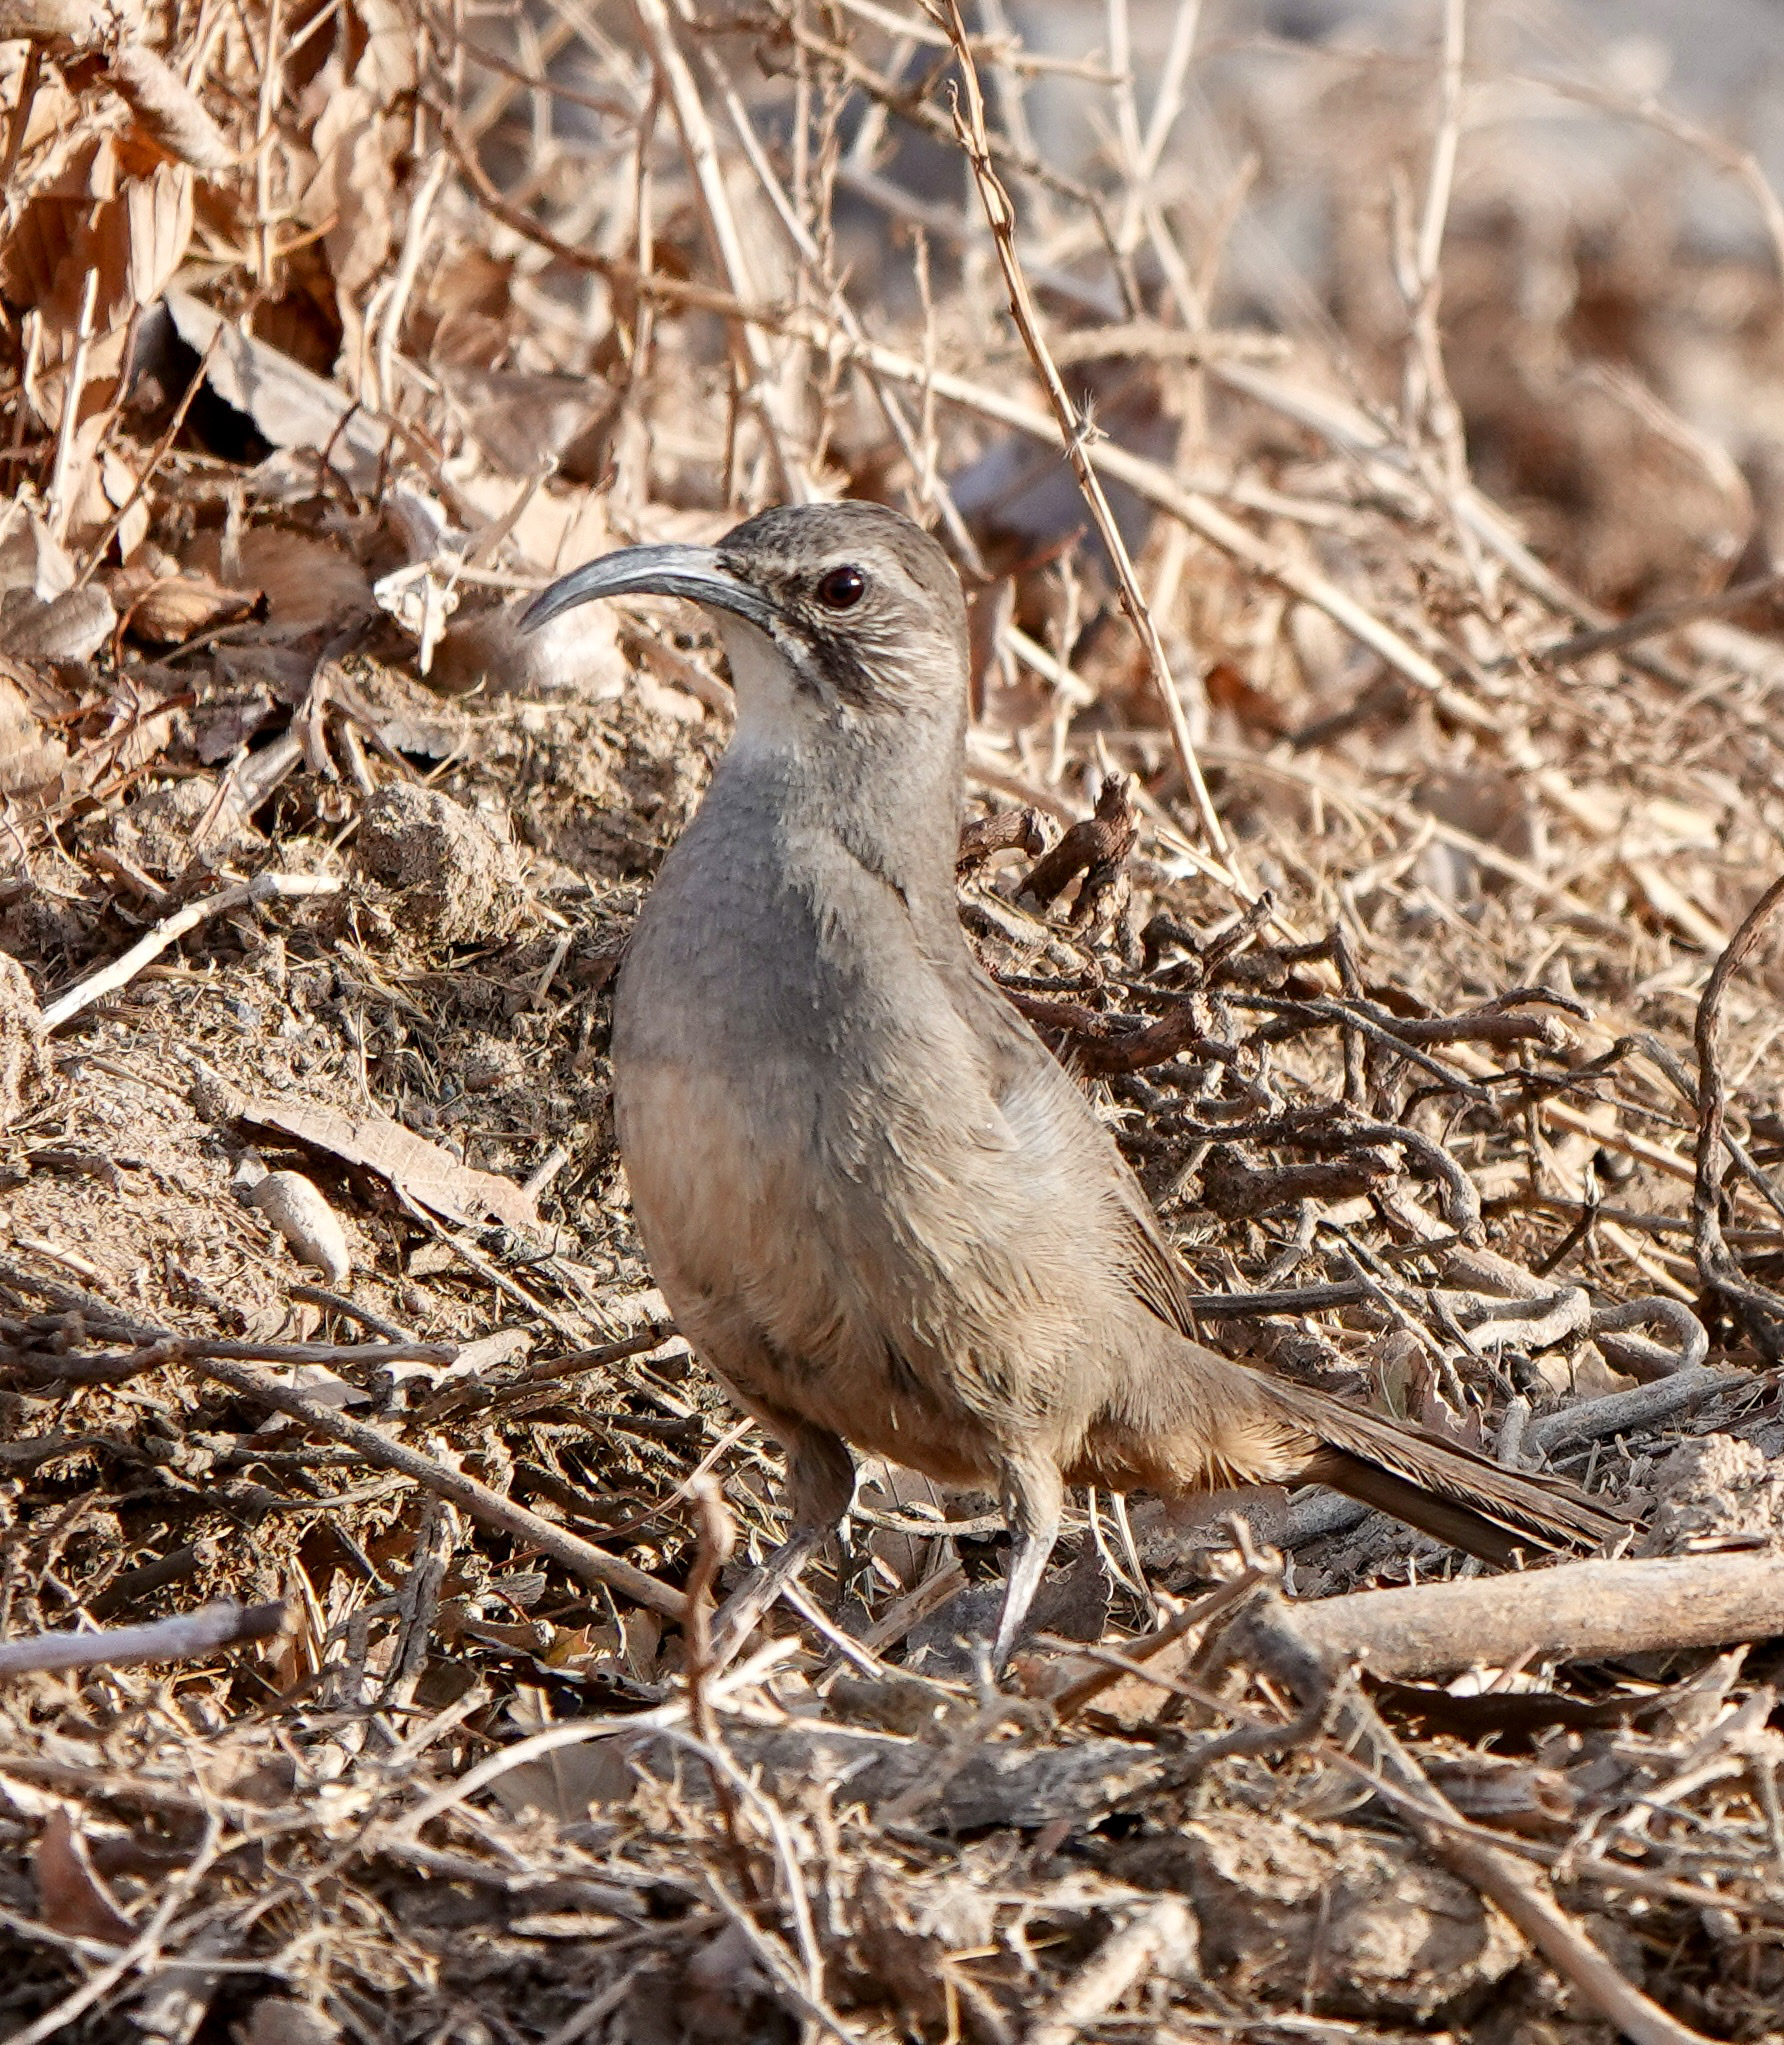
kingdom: Animalia
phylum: Chordata
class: Aves
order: Passeriformes
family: Mimidae
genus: Toxostoma
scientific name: Toxostoma redivivum
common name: California thrasher
